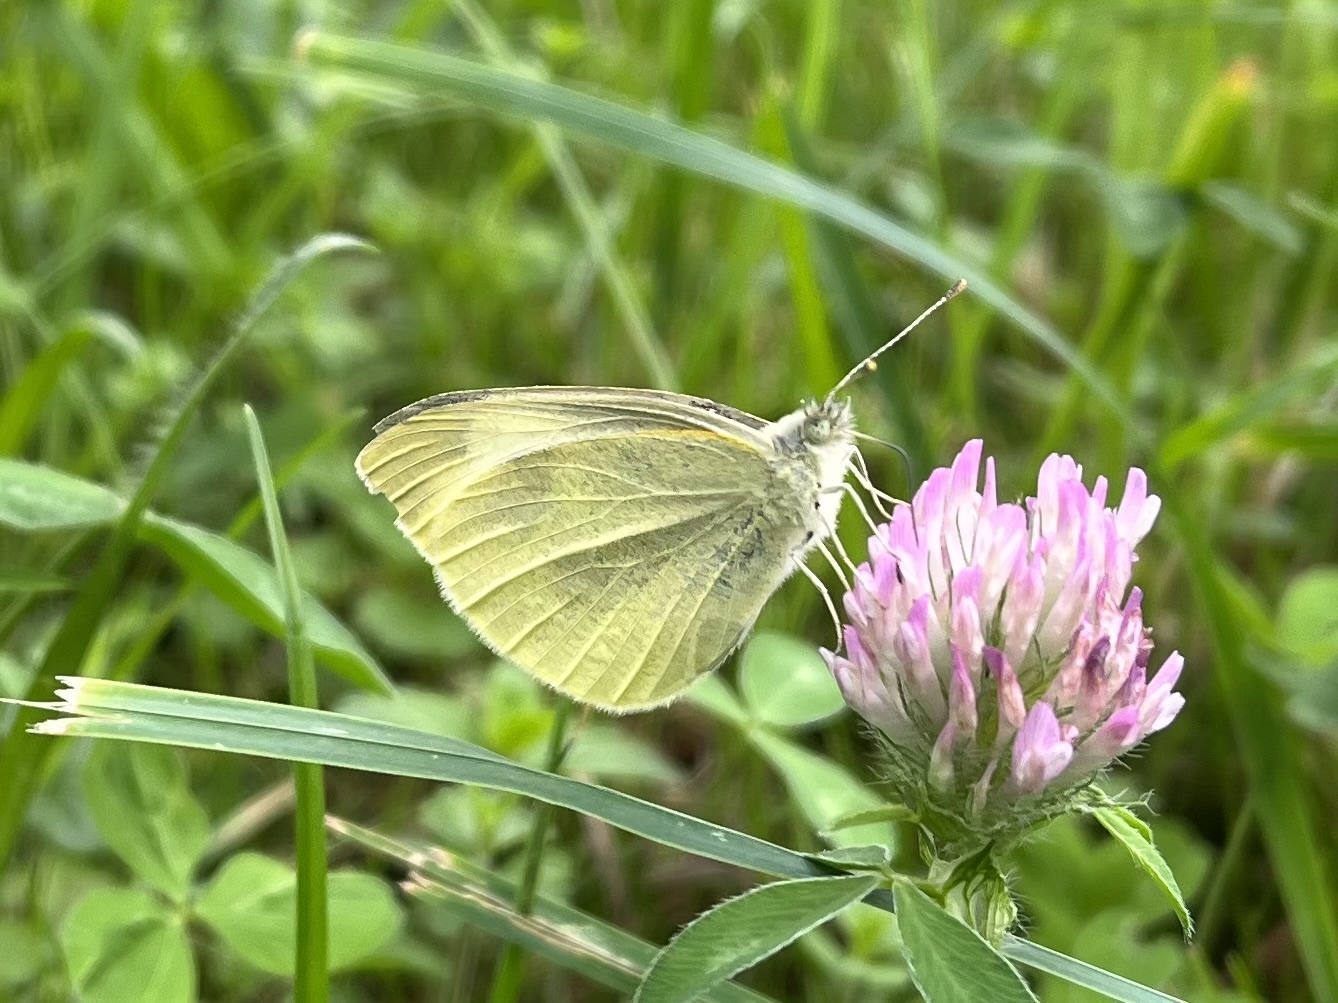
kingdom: Animalia
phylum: Arthropoda
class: Insecta
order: Lepidoptera
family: Pieridae
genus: Pieris
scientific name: Pieris rapae
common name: Small white
